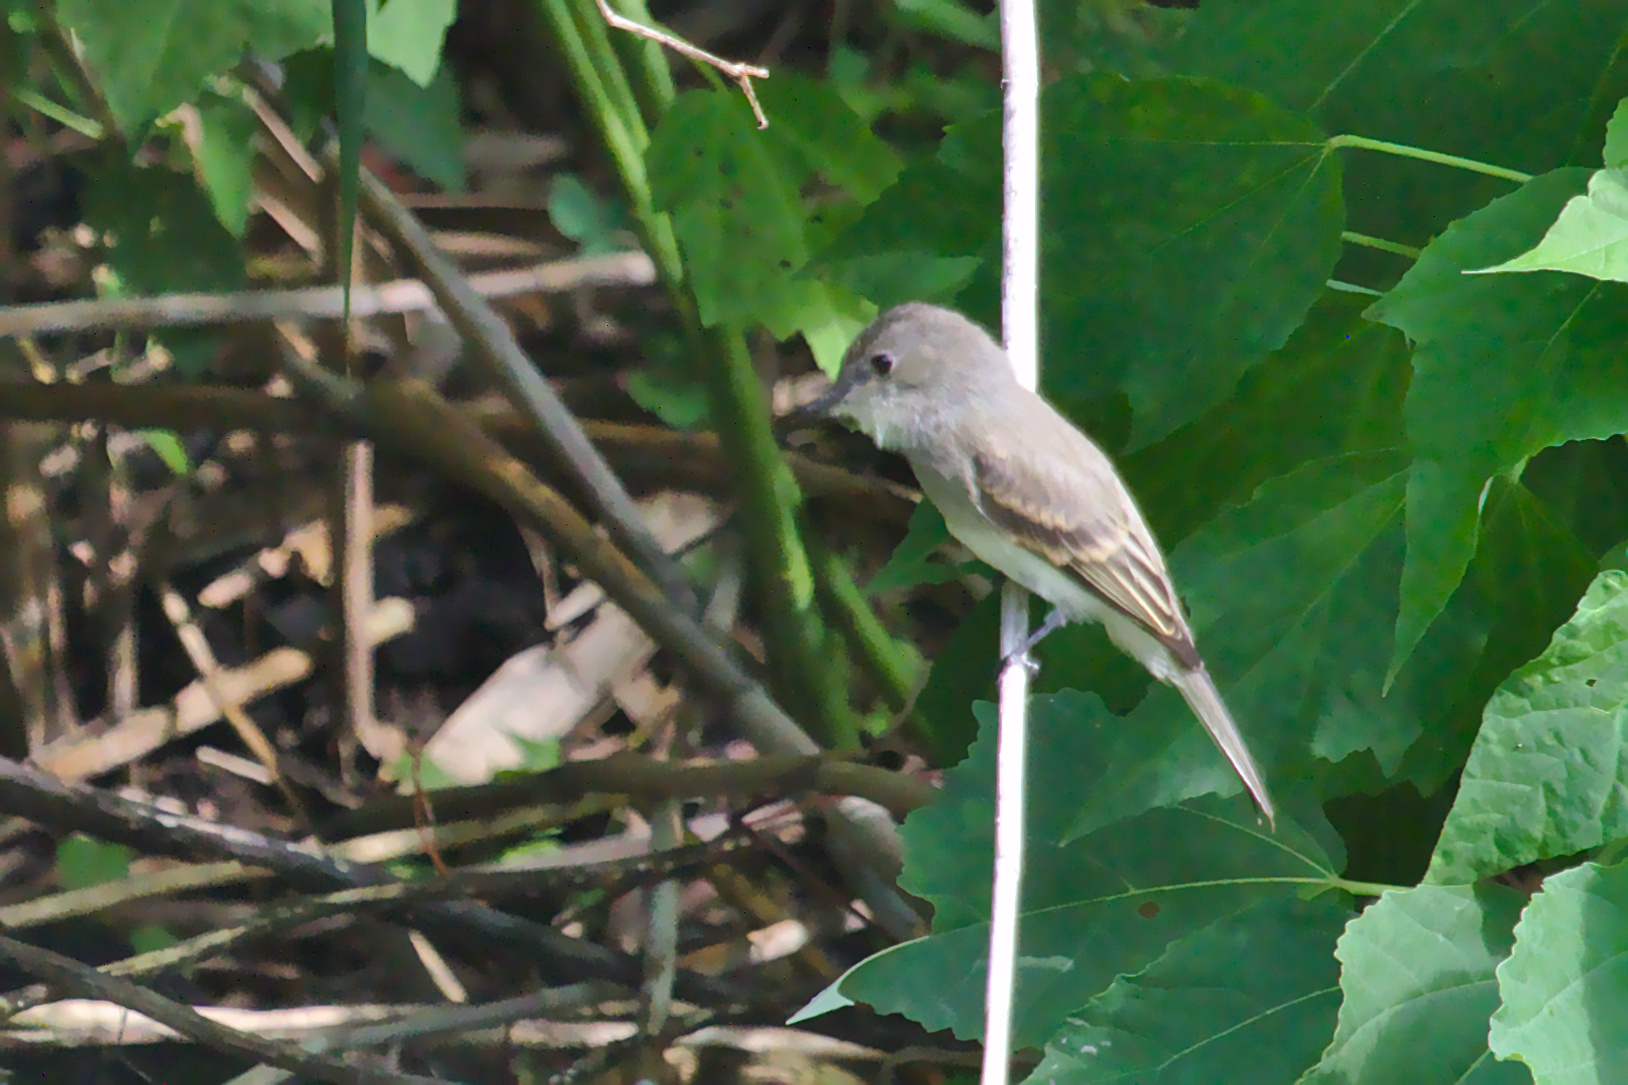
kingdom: Animalia
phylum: Chordata
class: Aves
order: Passeriformes
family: Tyrannidae
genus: Sayornis
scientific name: Sayornis phoebe
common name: Eastern phoebe
